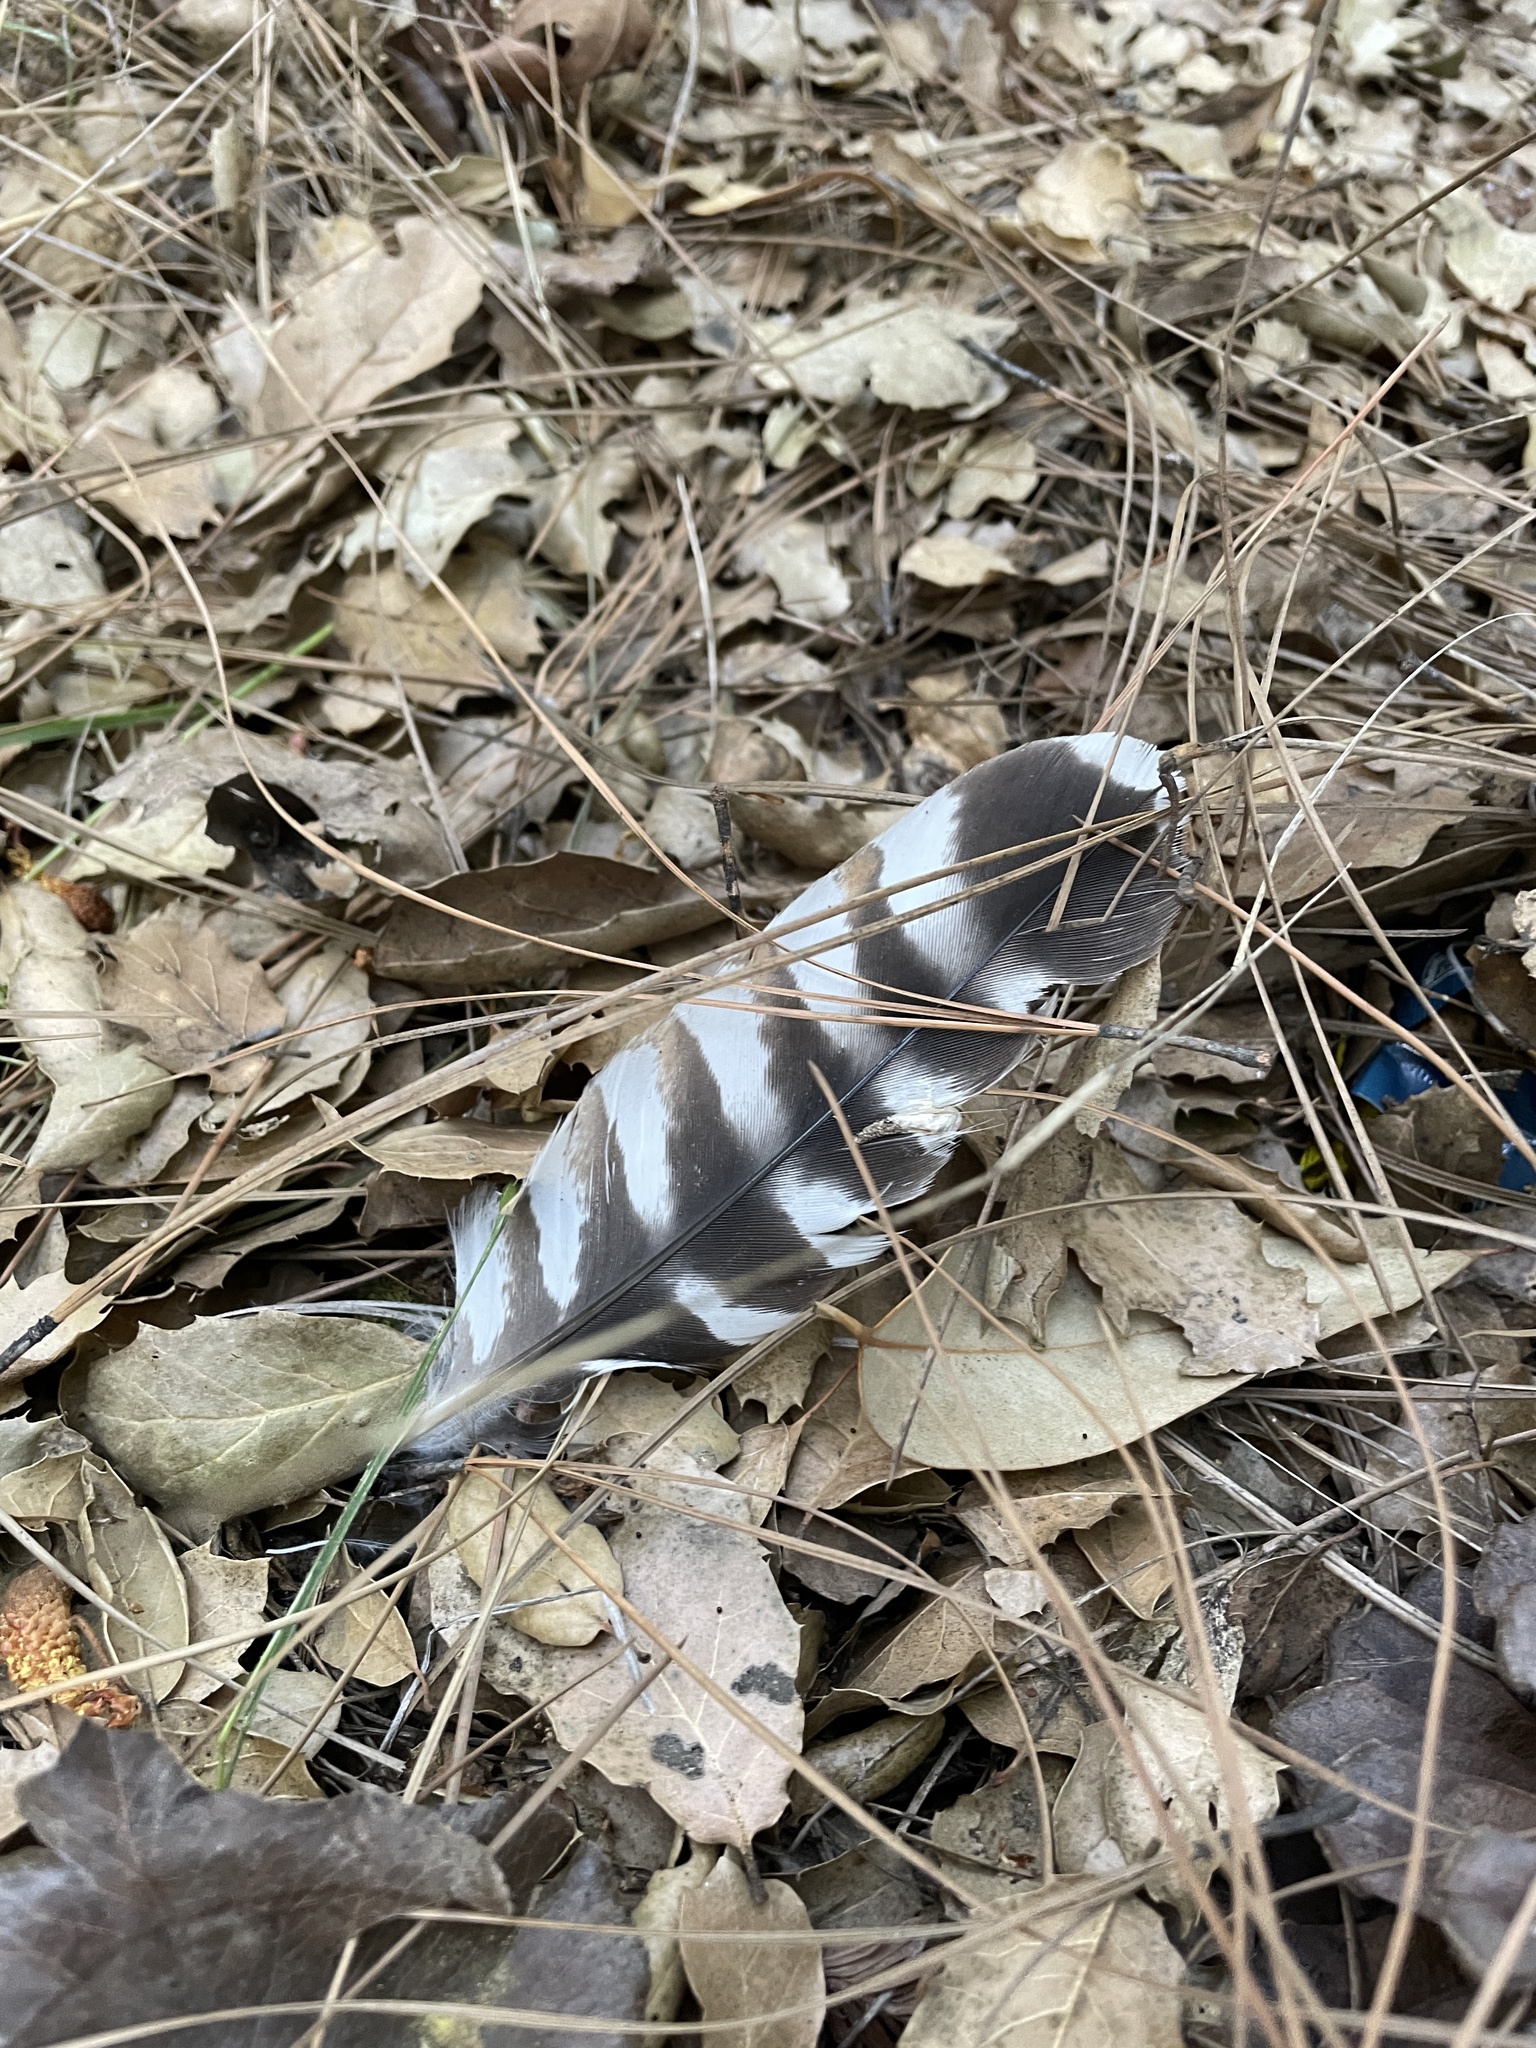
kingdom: Animalia
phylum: Chordata
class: Aves
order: Accipitriformes
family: Accipitridae
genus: Buteo
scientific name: Buteo lineatus
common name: Red-shouldered hawk
